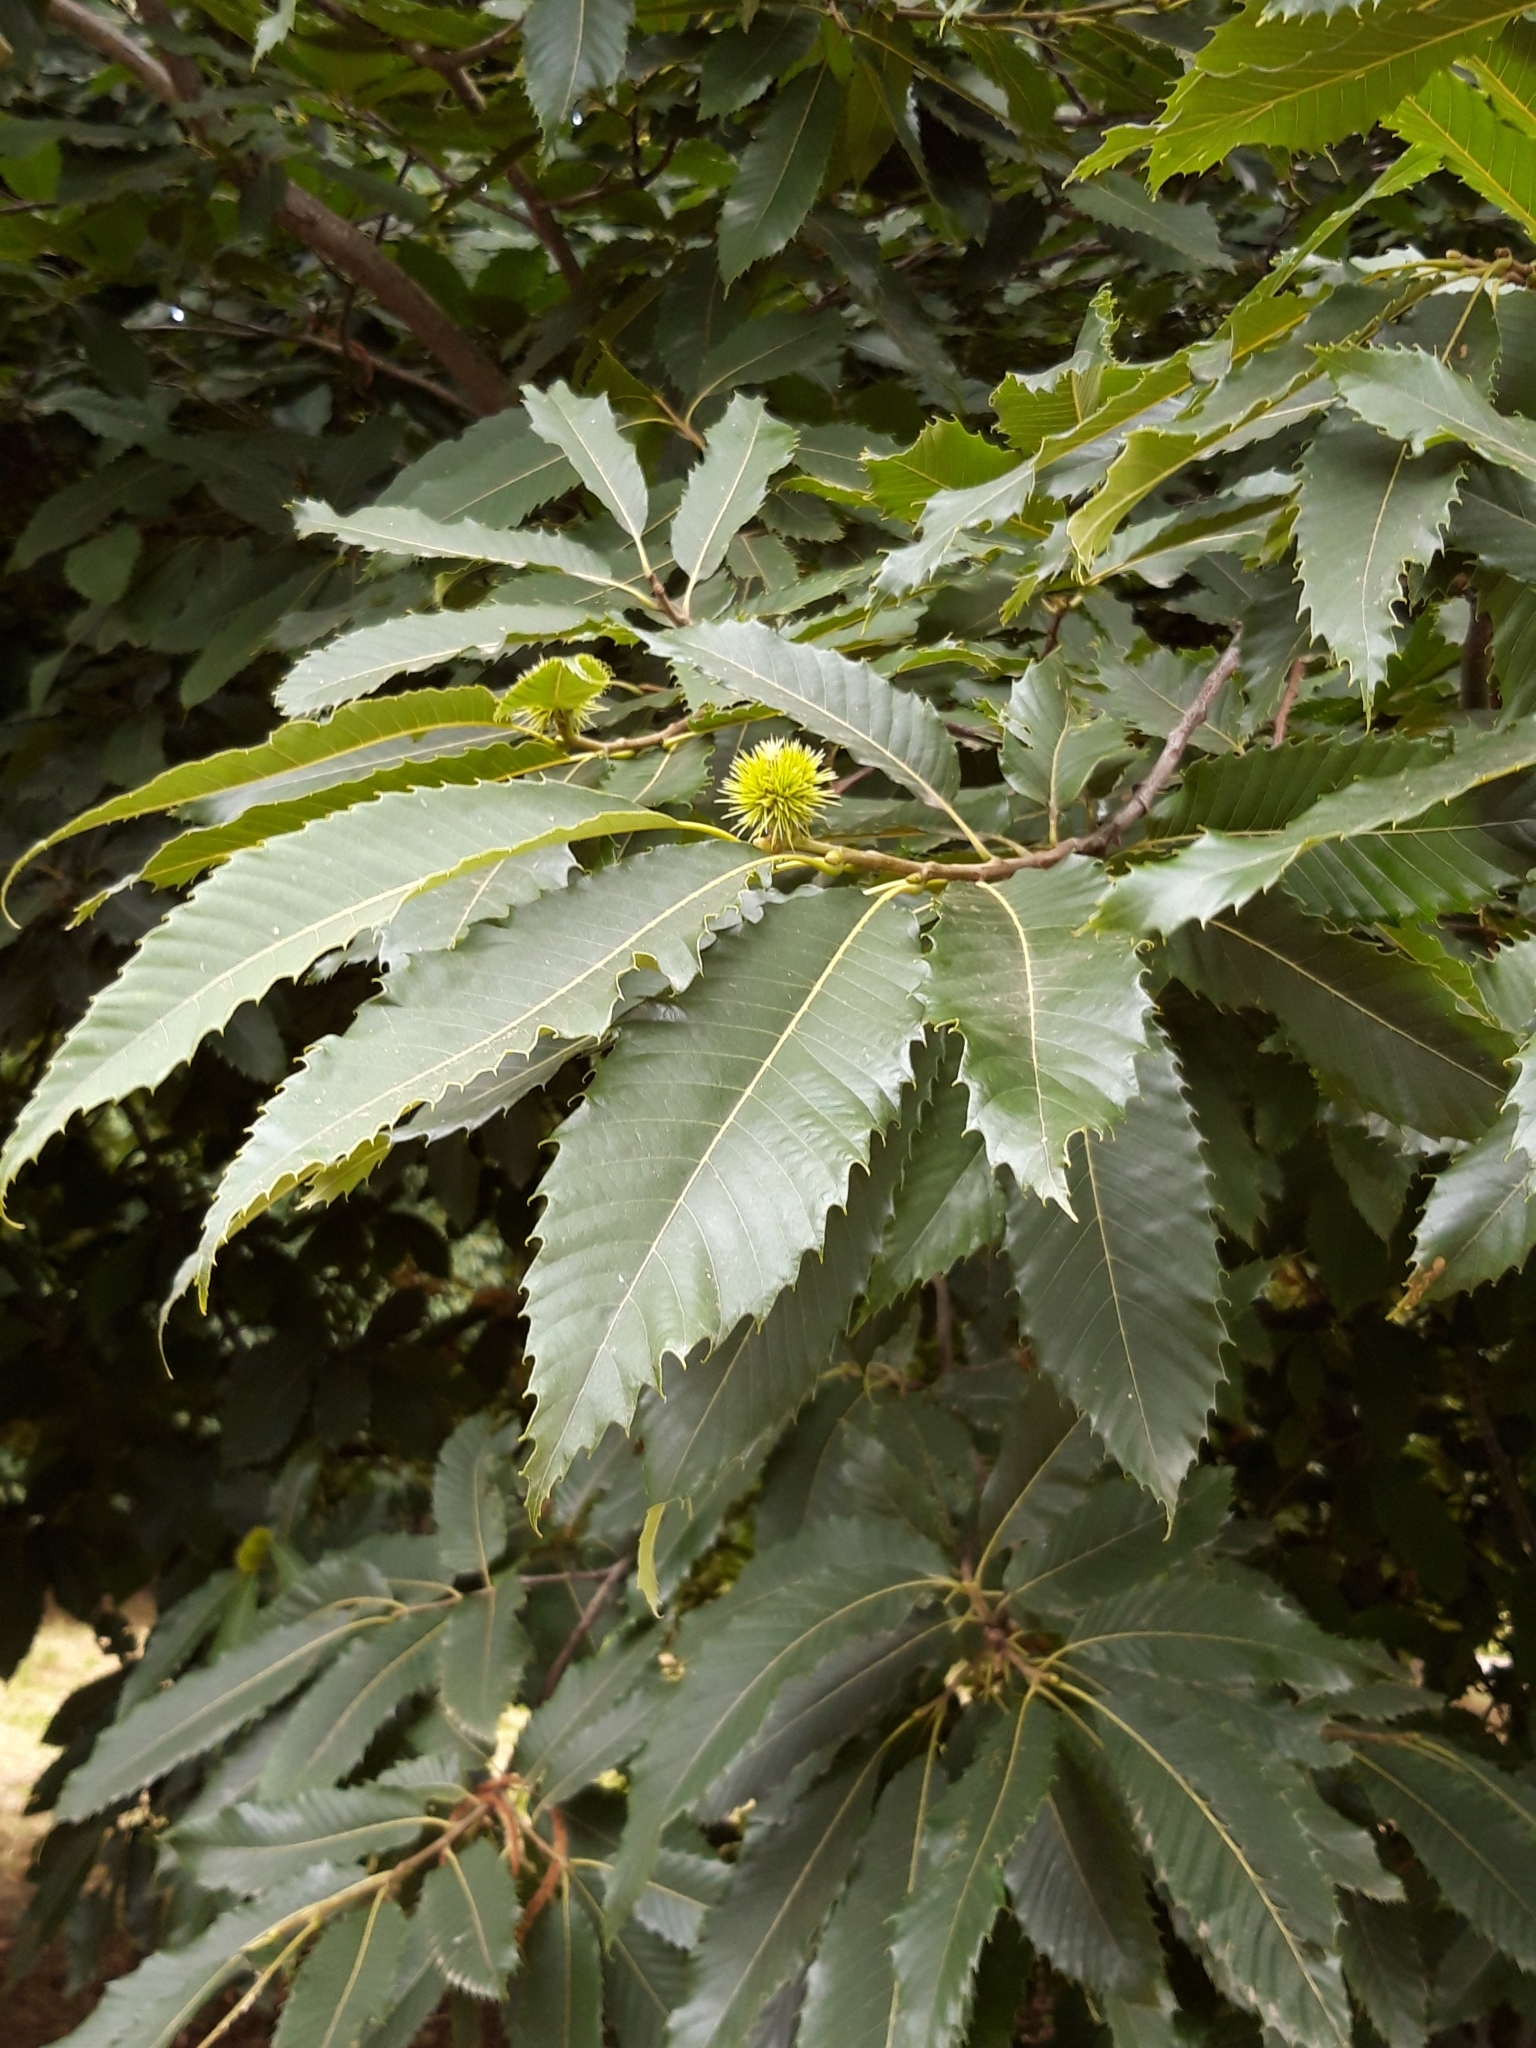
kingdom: Plantae
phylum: Tracheophyta
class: Magnoliopsida
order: Fagales
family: Fagaceae
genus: Castanea
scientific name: Castanea sativa
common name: Sweet chestnut
